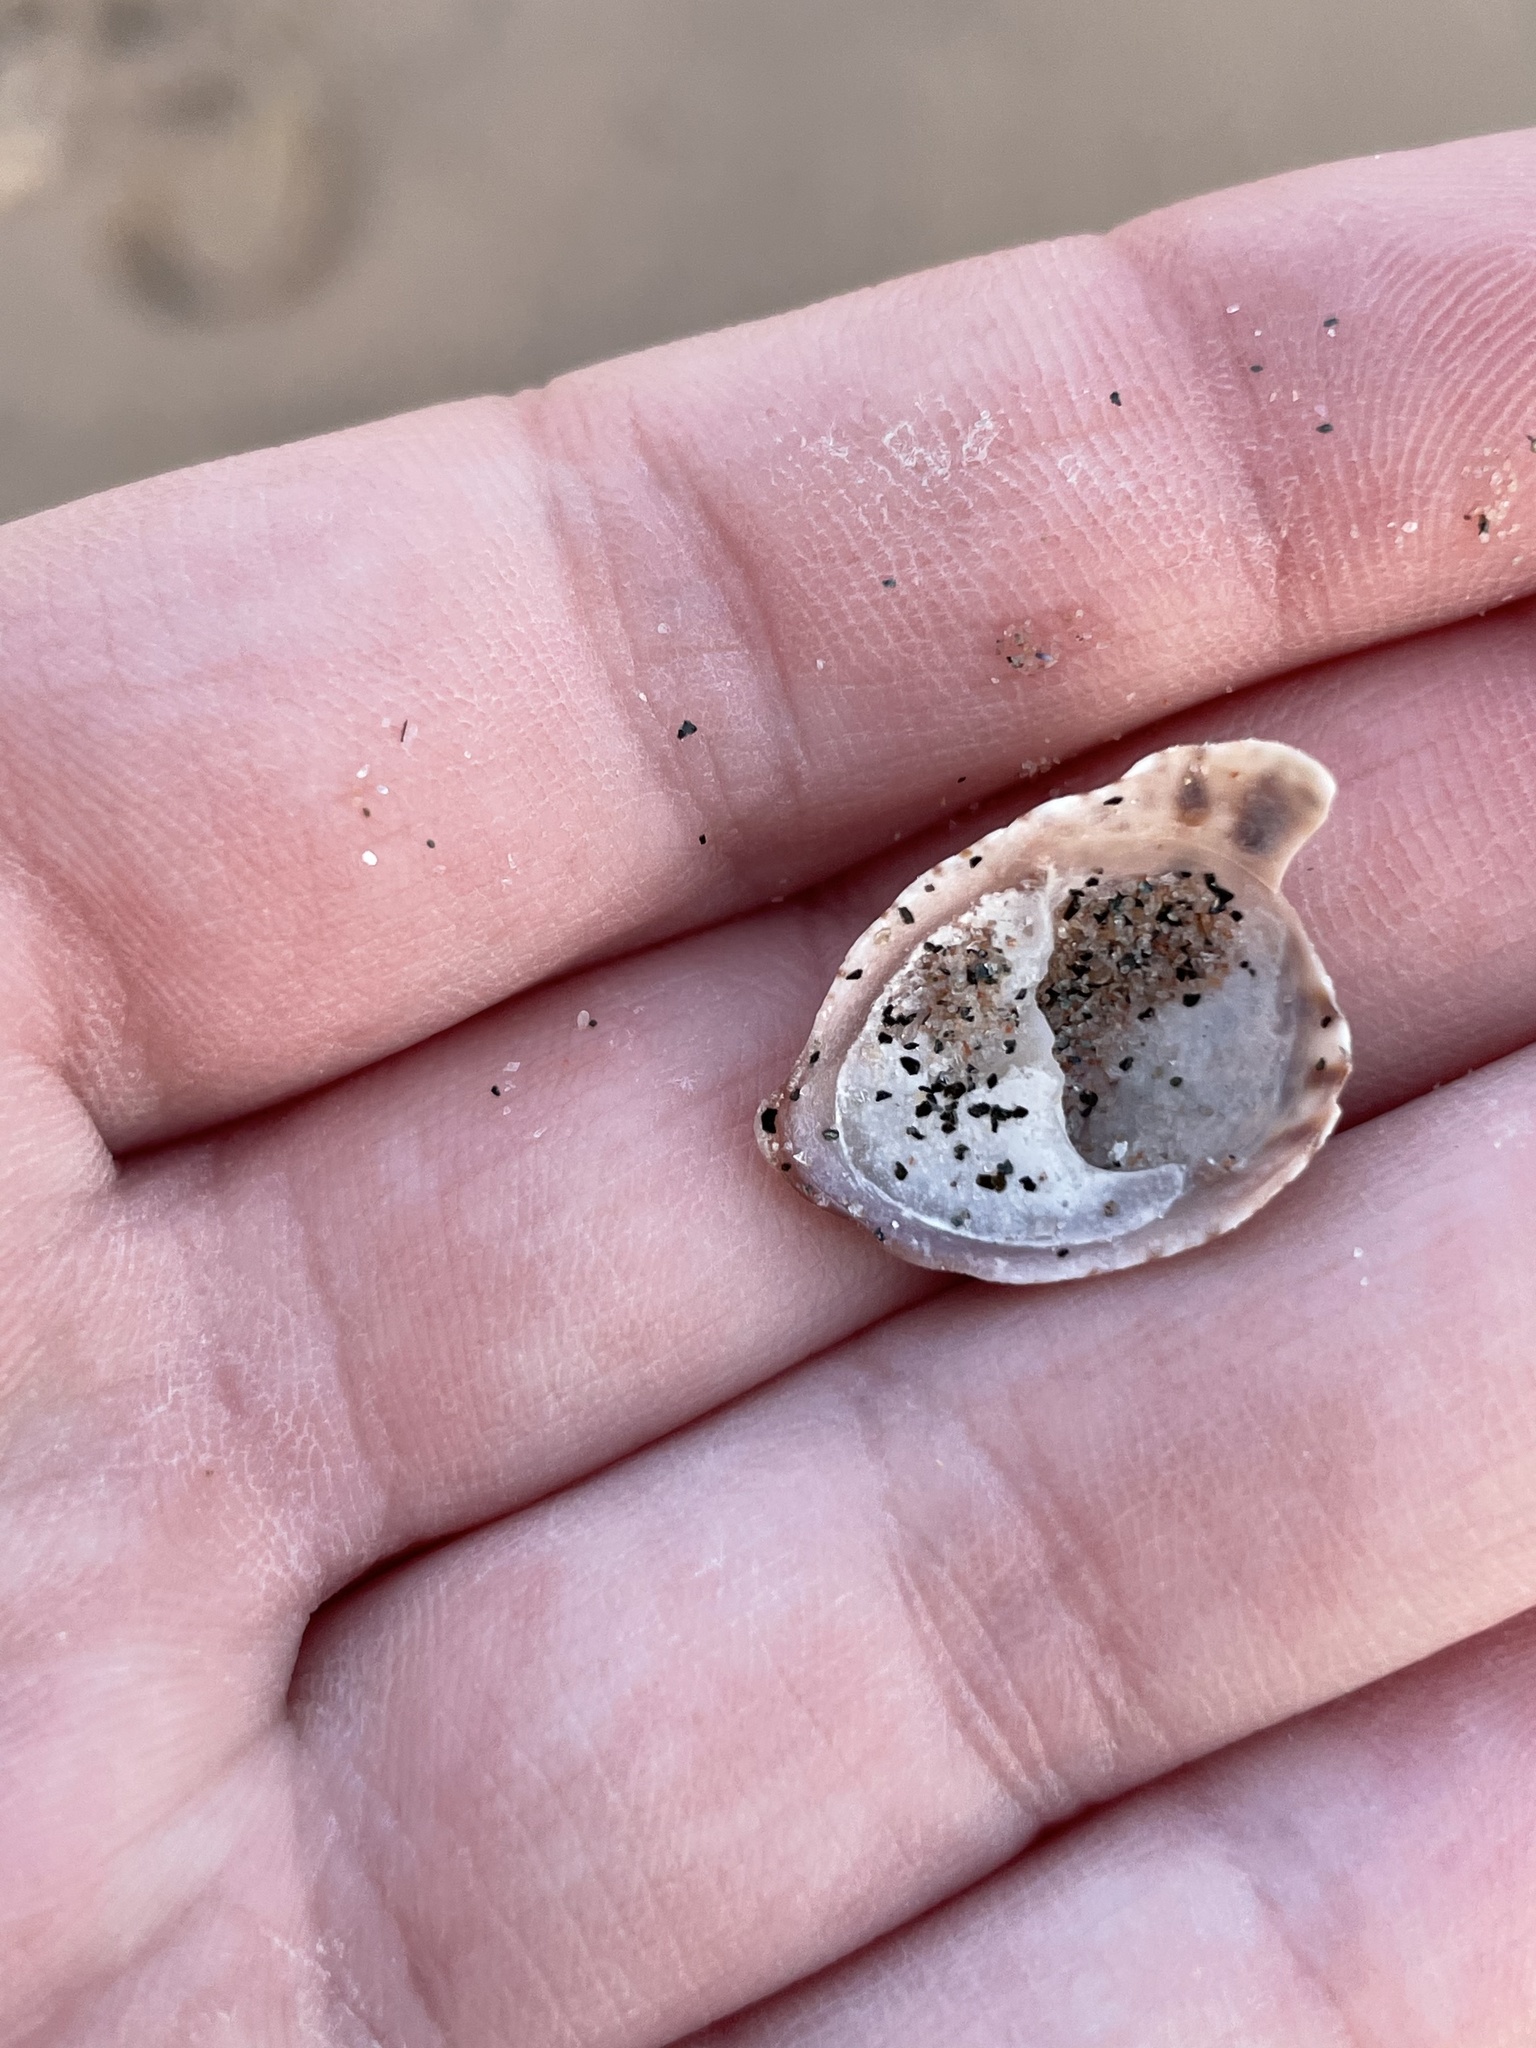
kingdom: Animalia
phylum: Mollusca
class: Gastropoda
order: Littorinimorpha
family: Calyptraeidae
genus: Crepidula
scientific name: Crepidula fornicata
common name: Slipper limpet
